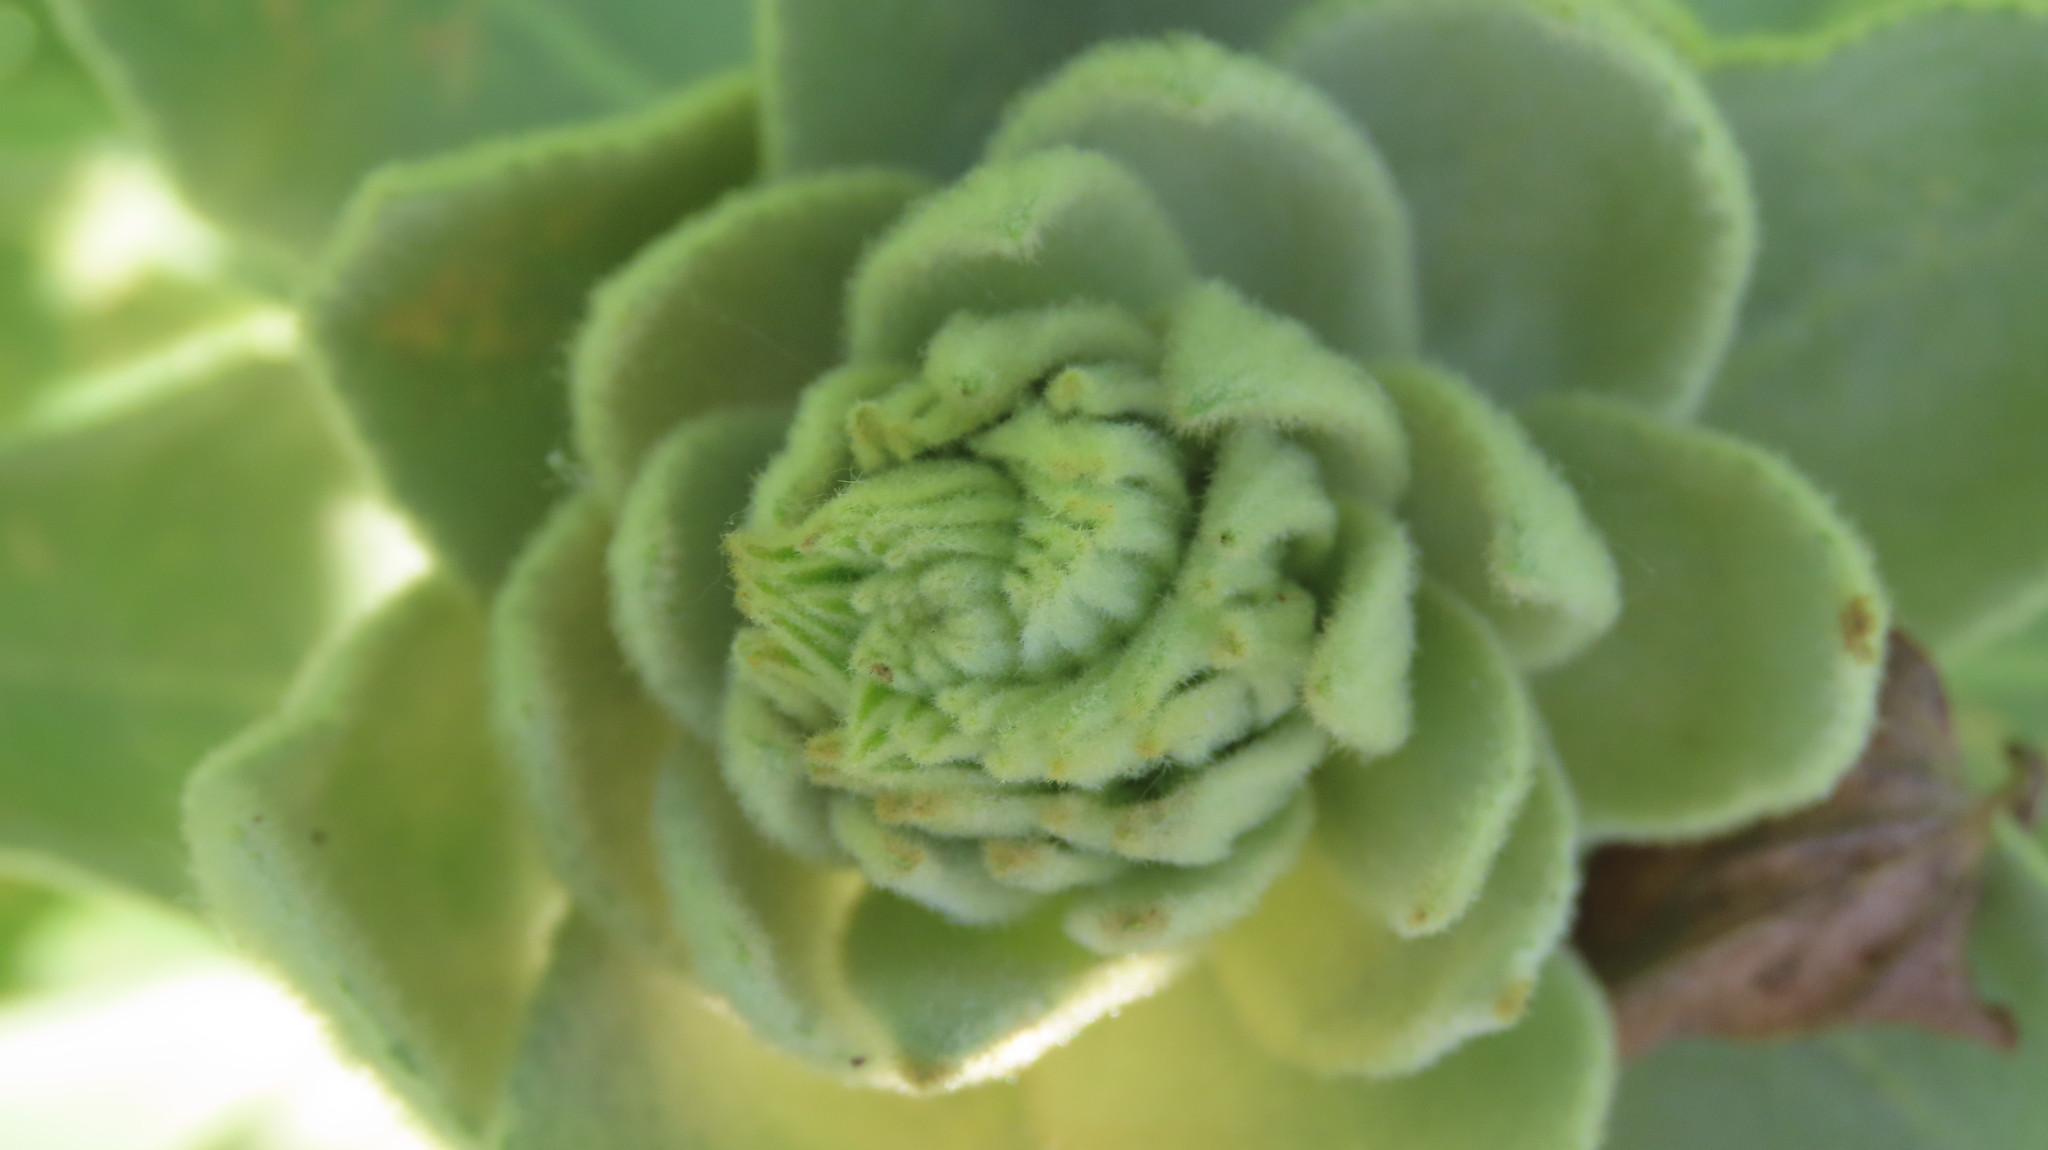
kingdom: Plantae
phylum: Tracheophyta
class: Magnoliopsida
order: Lamiales
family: Scrophulariaceae
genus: Verbascum
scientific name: Verbascum thapsus
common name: Common mullein
